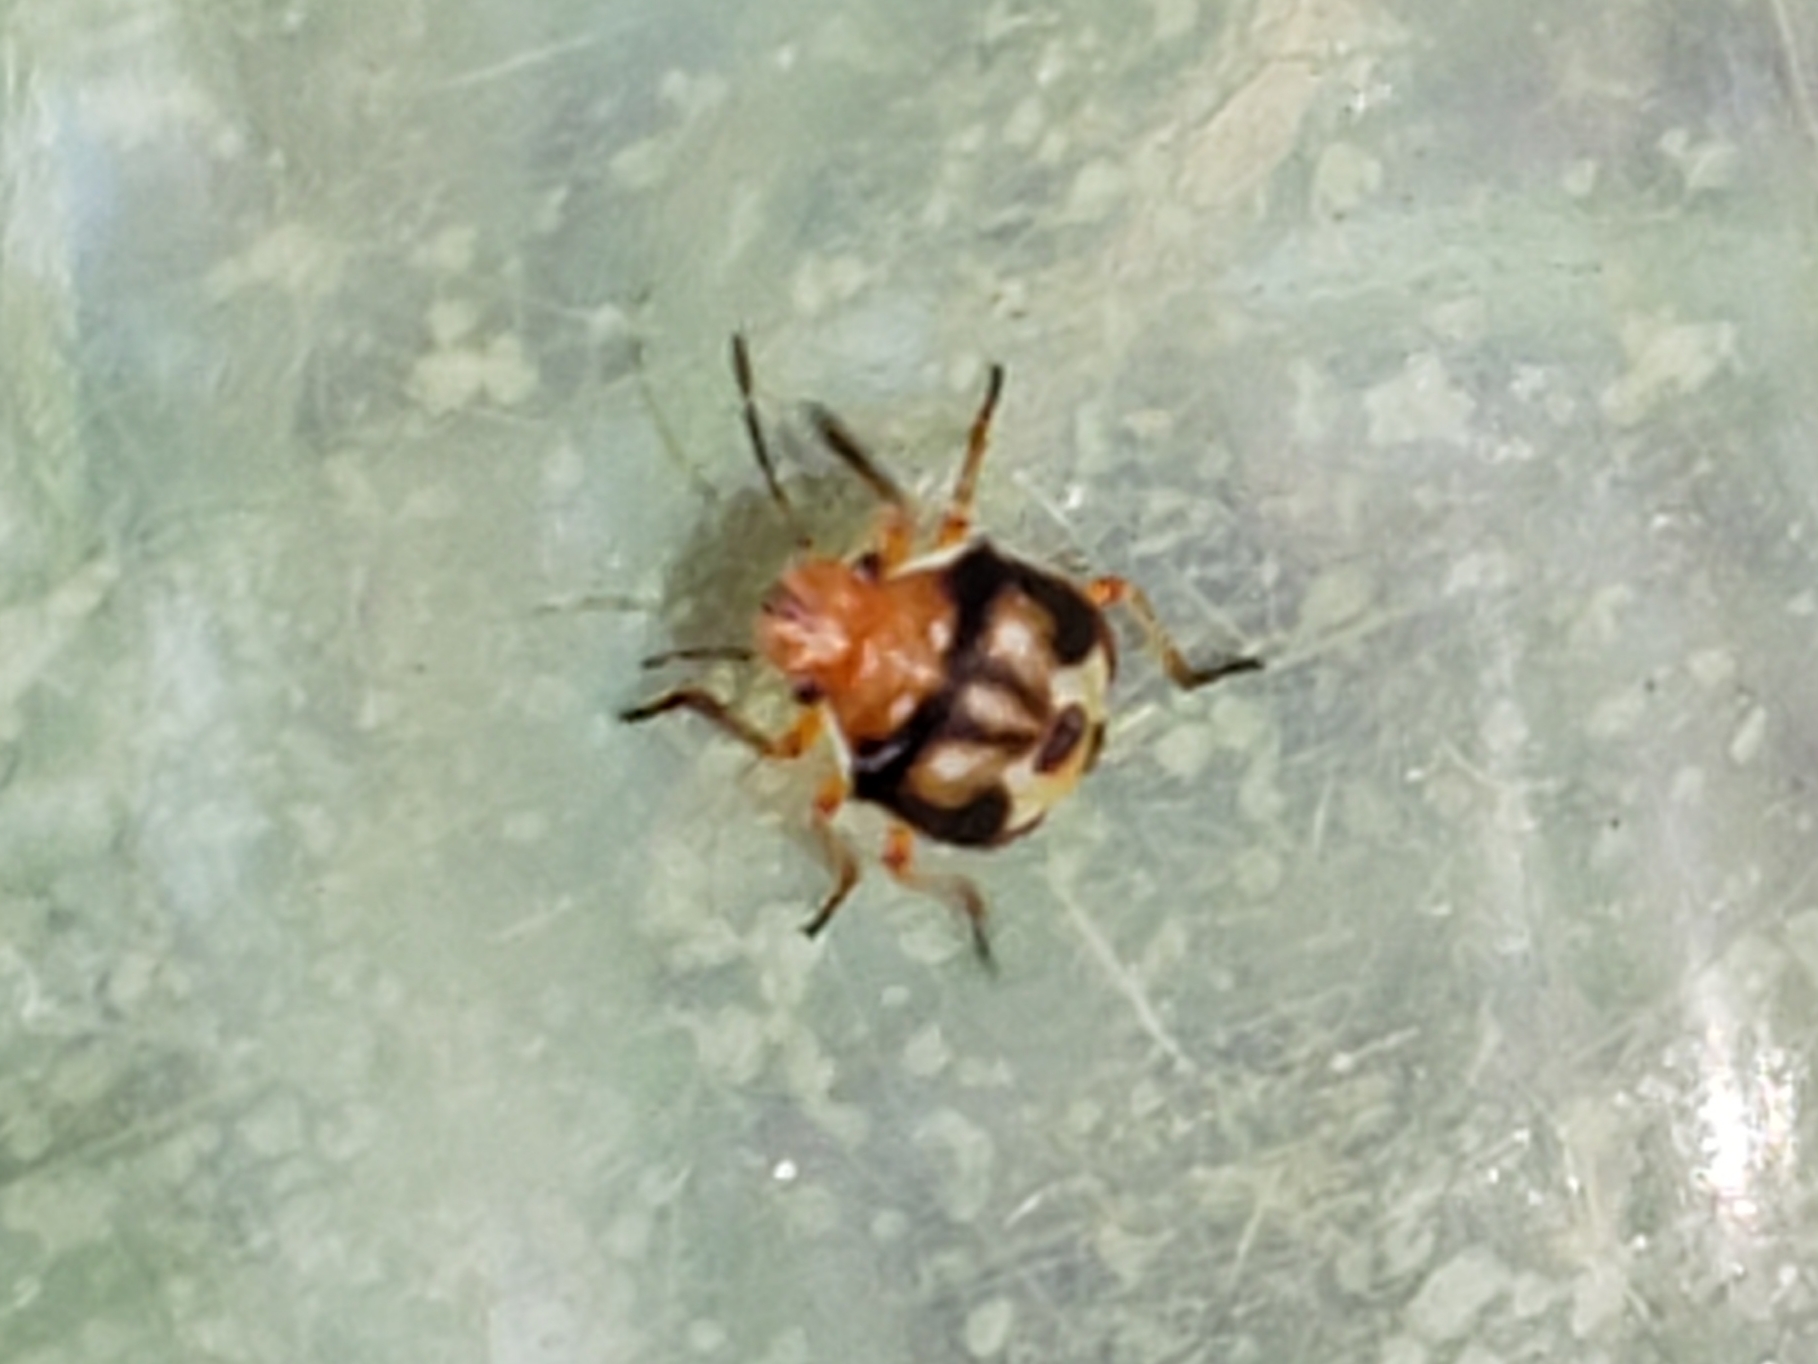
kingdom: Animalia
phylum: Arthropoda
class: Insecta
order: Hemiptera
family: Pentatomidae
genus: Mormidea
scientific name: Mormidea pama
